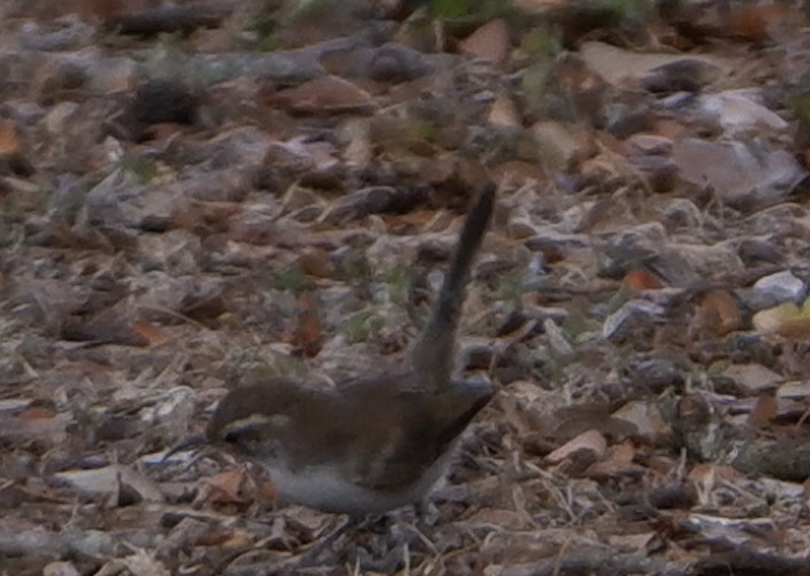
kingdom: Animalia
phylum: Chordata
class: Aves
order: Passeriformes
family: Troglodytidae
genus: Thryomanes
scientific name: Thryomanes bewickii
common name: Bewick's wren
